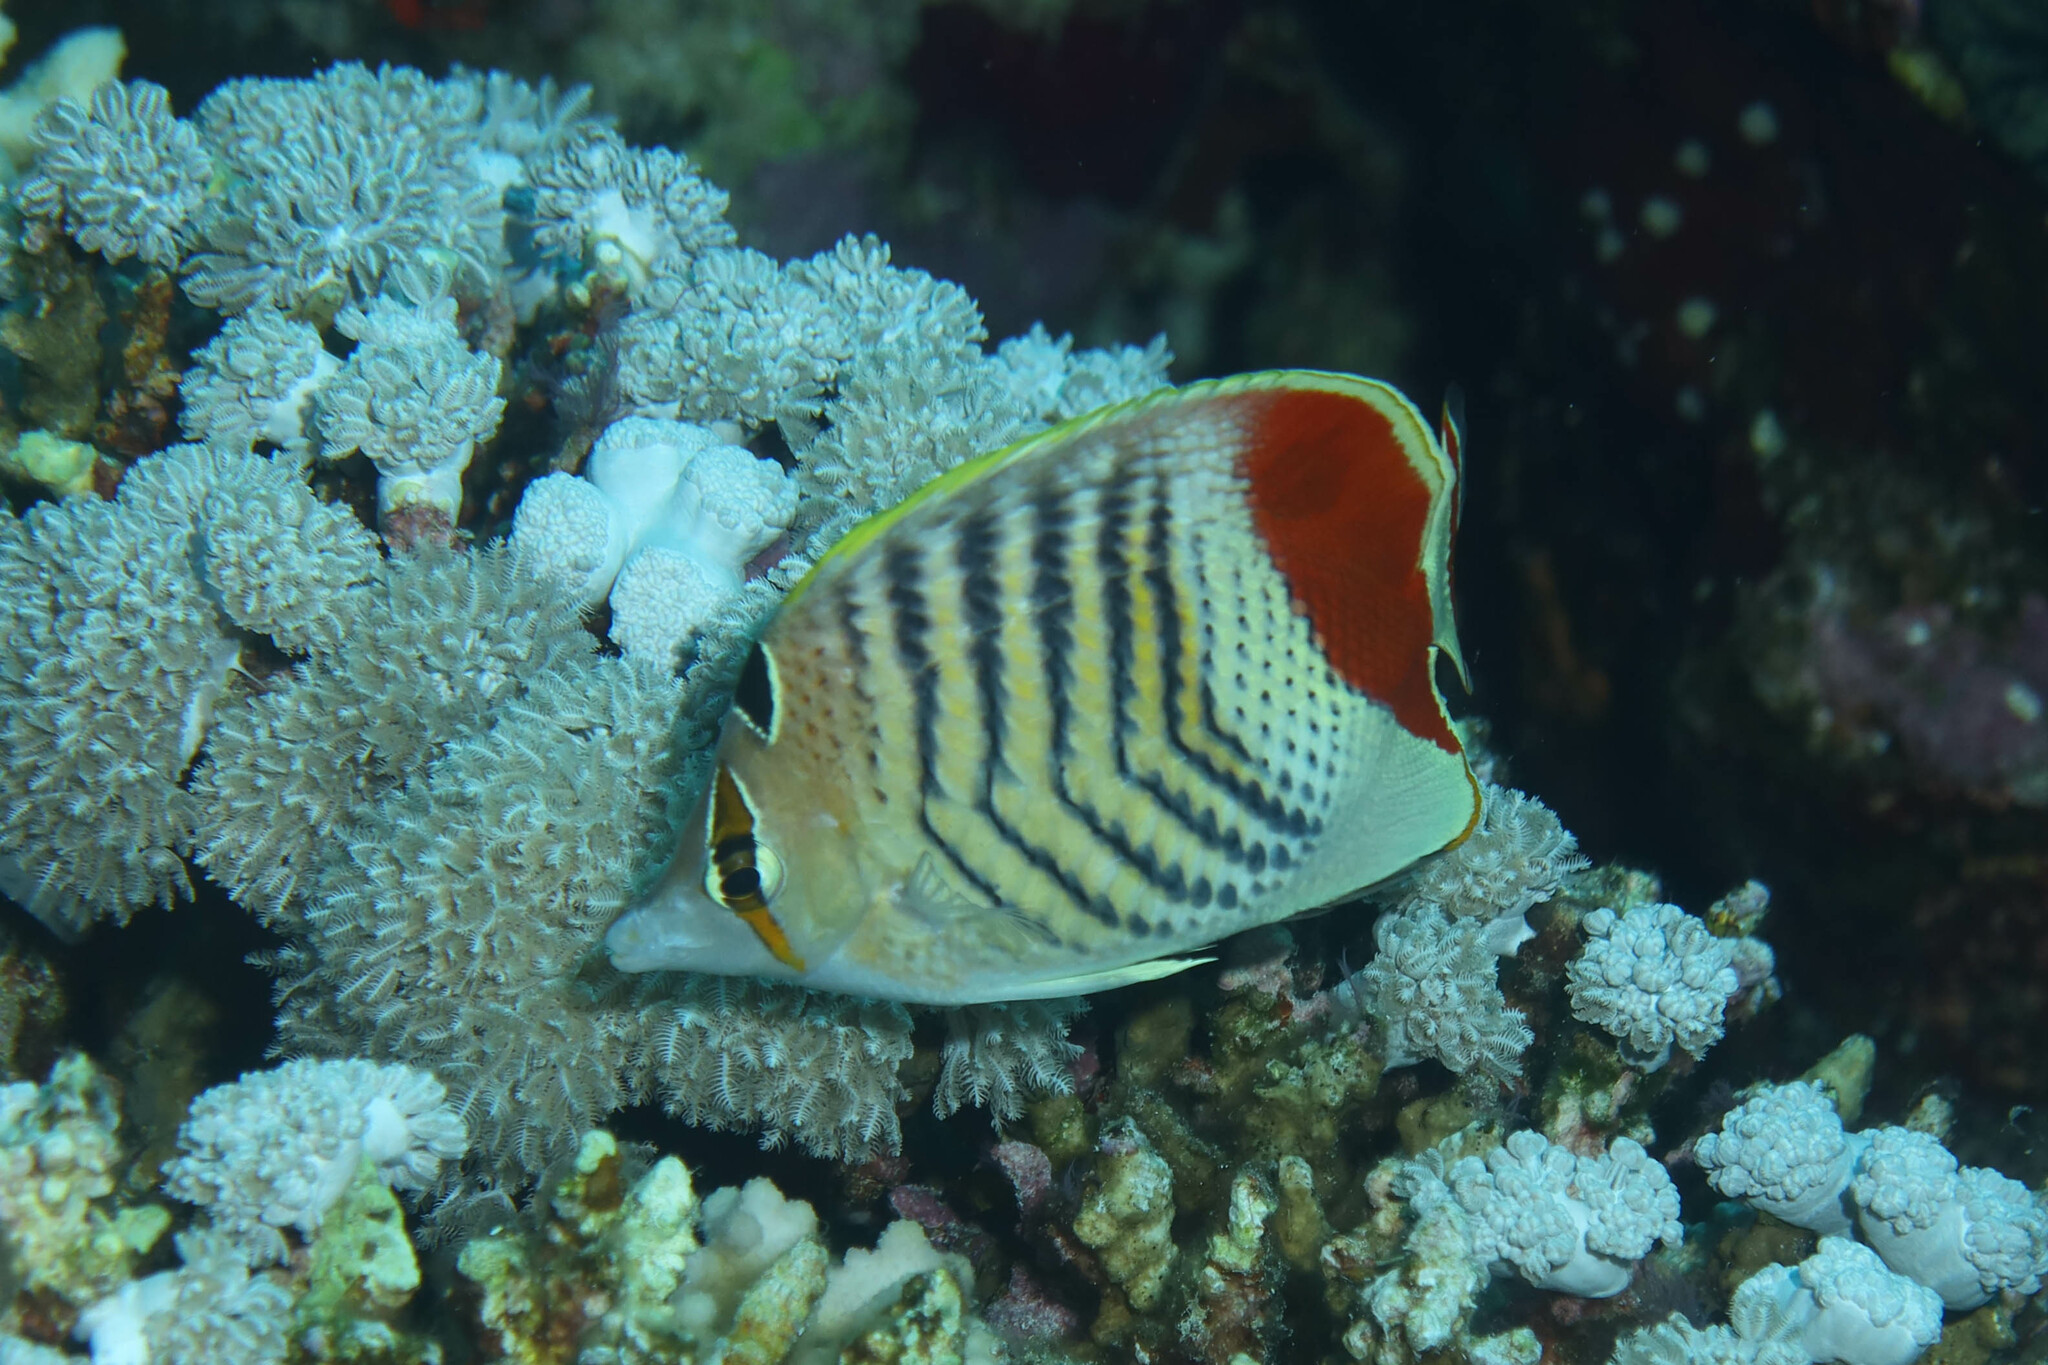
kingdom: Animalia
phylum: Chordata
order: Perciformes
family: Chaetodontidae
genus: Chaetodon
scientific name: Chaetodon paucifasciatus
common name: Crown butterflyfish
